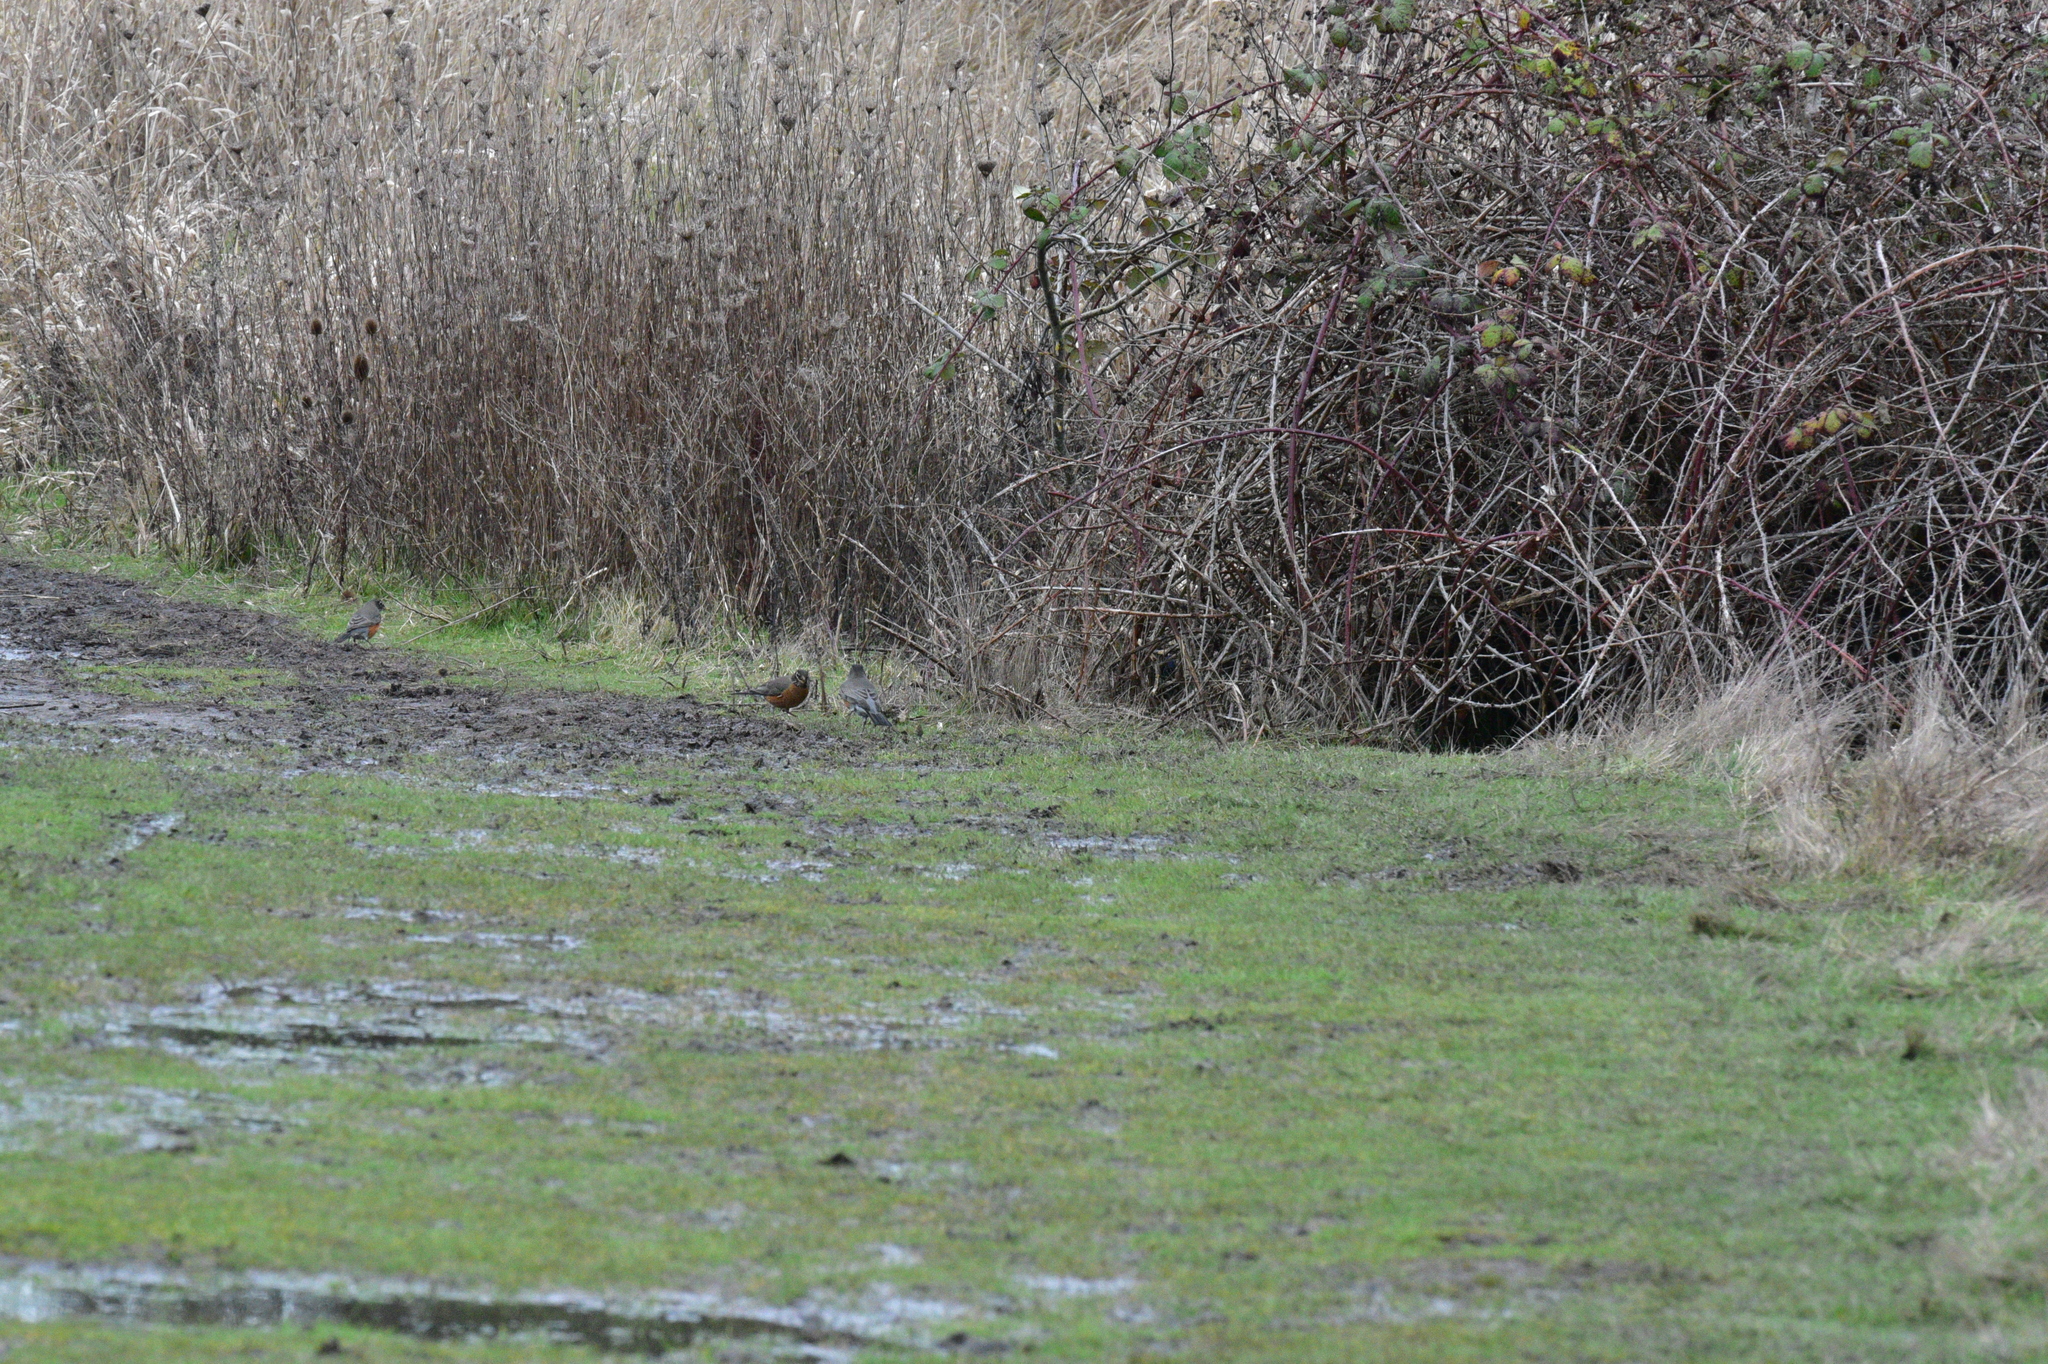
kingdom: Animalia
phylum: Chordata
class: Aves
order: Passeriformes
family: Turdidae
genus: Turdus
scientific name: Turdus migratorius
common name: American robin
